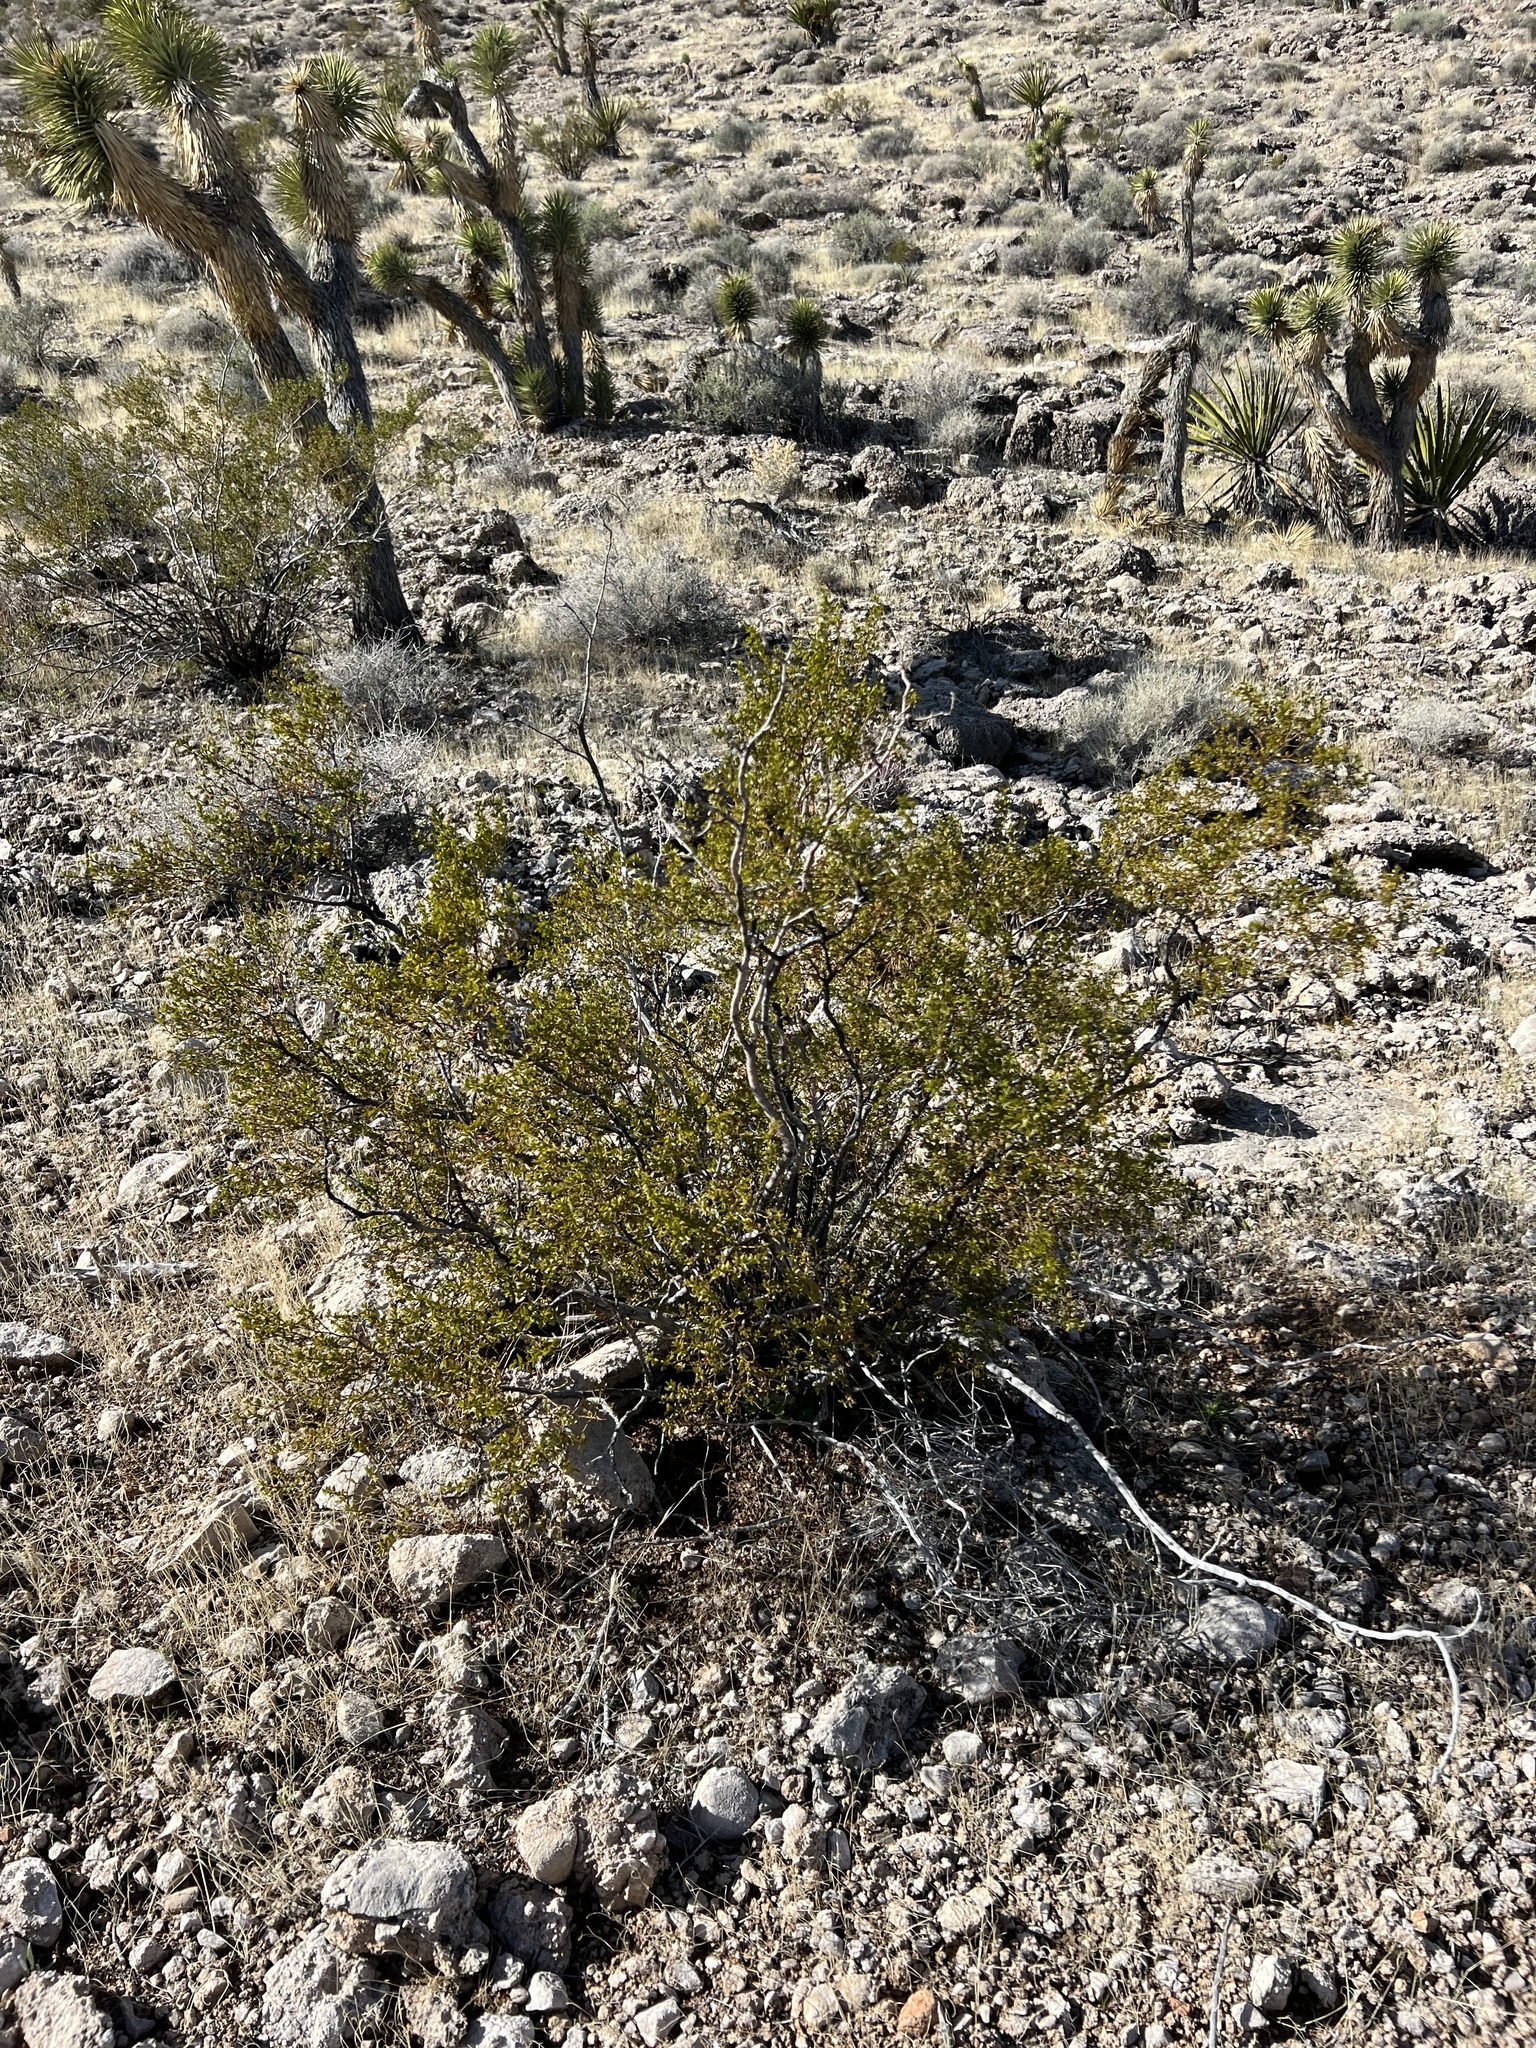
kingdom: Plantae
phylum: Tracheophyta
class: Magnoliopsida
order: Zygophyllales
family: Zygophyllaceae
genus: Larrea
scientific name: Larrea tridentata
